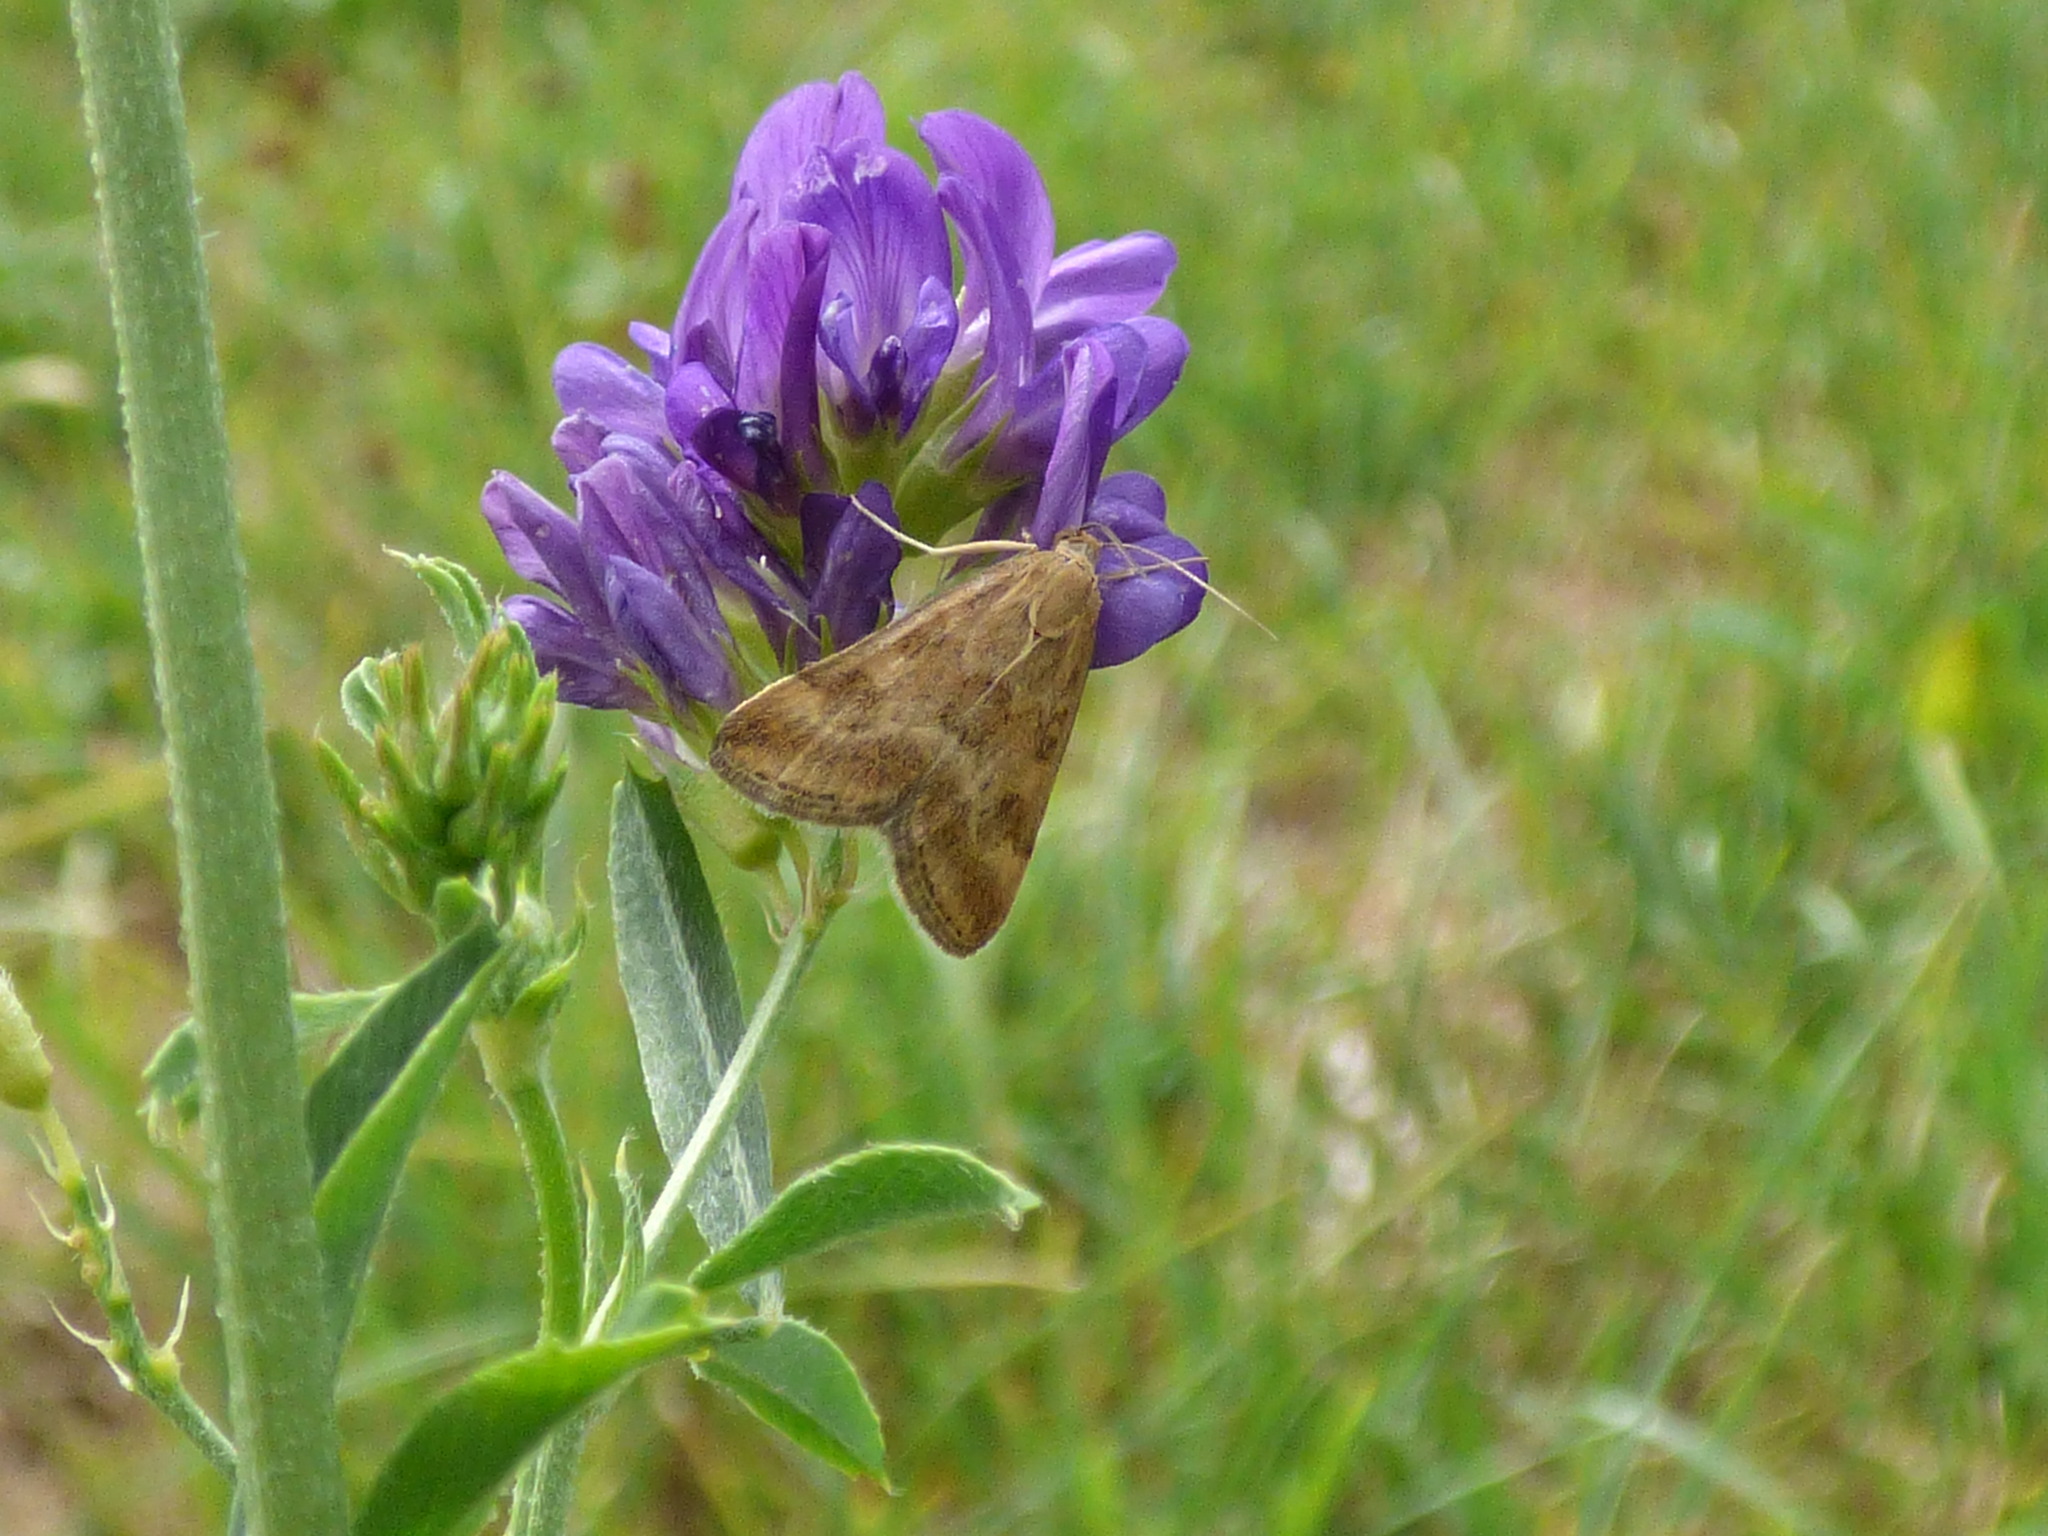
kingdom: Animalia
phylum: Arthropoda
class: Insecta
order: Lepidoptera
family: Crambidae
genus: Pyrausta
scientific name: Pyrausta despicata
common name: Straw-barred pearl
